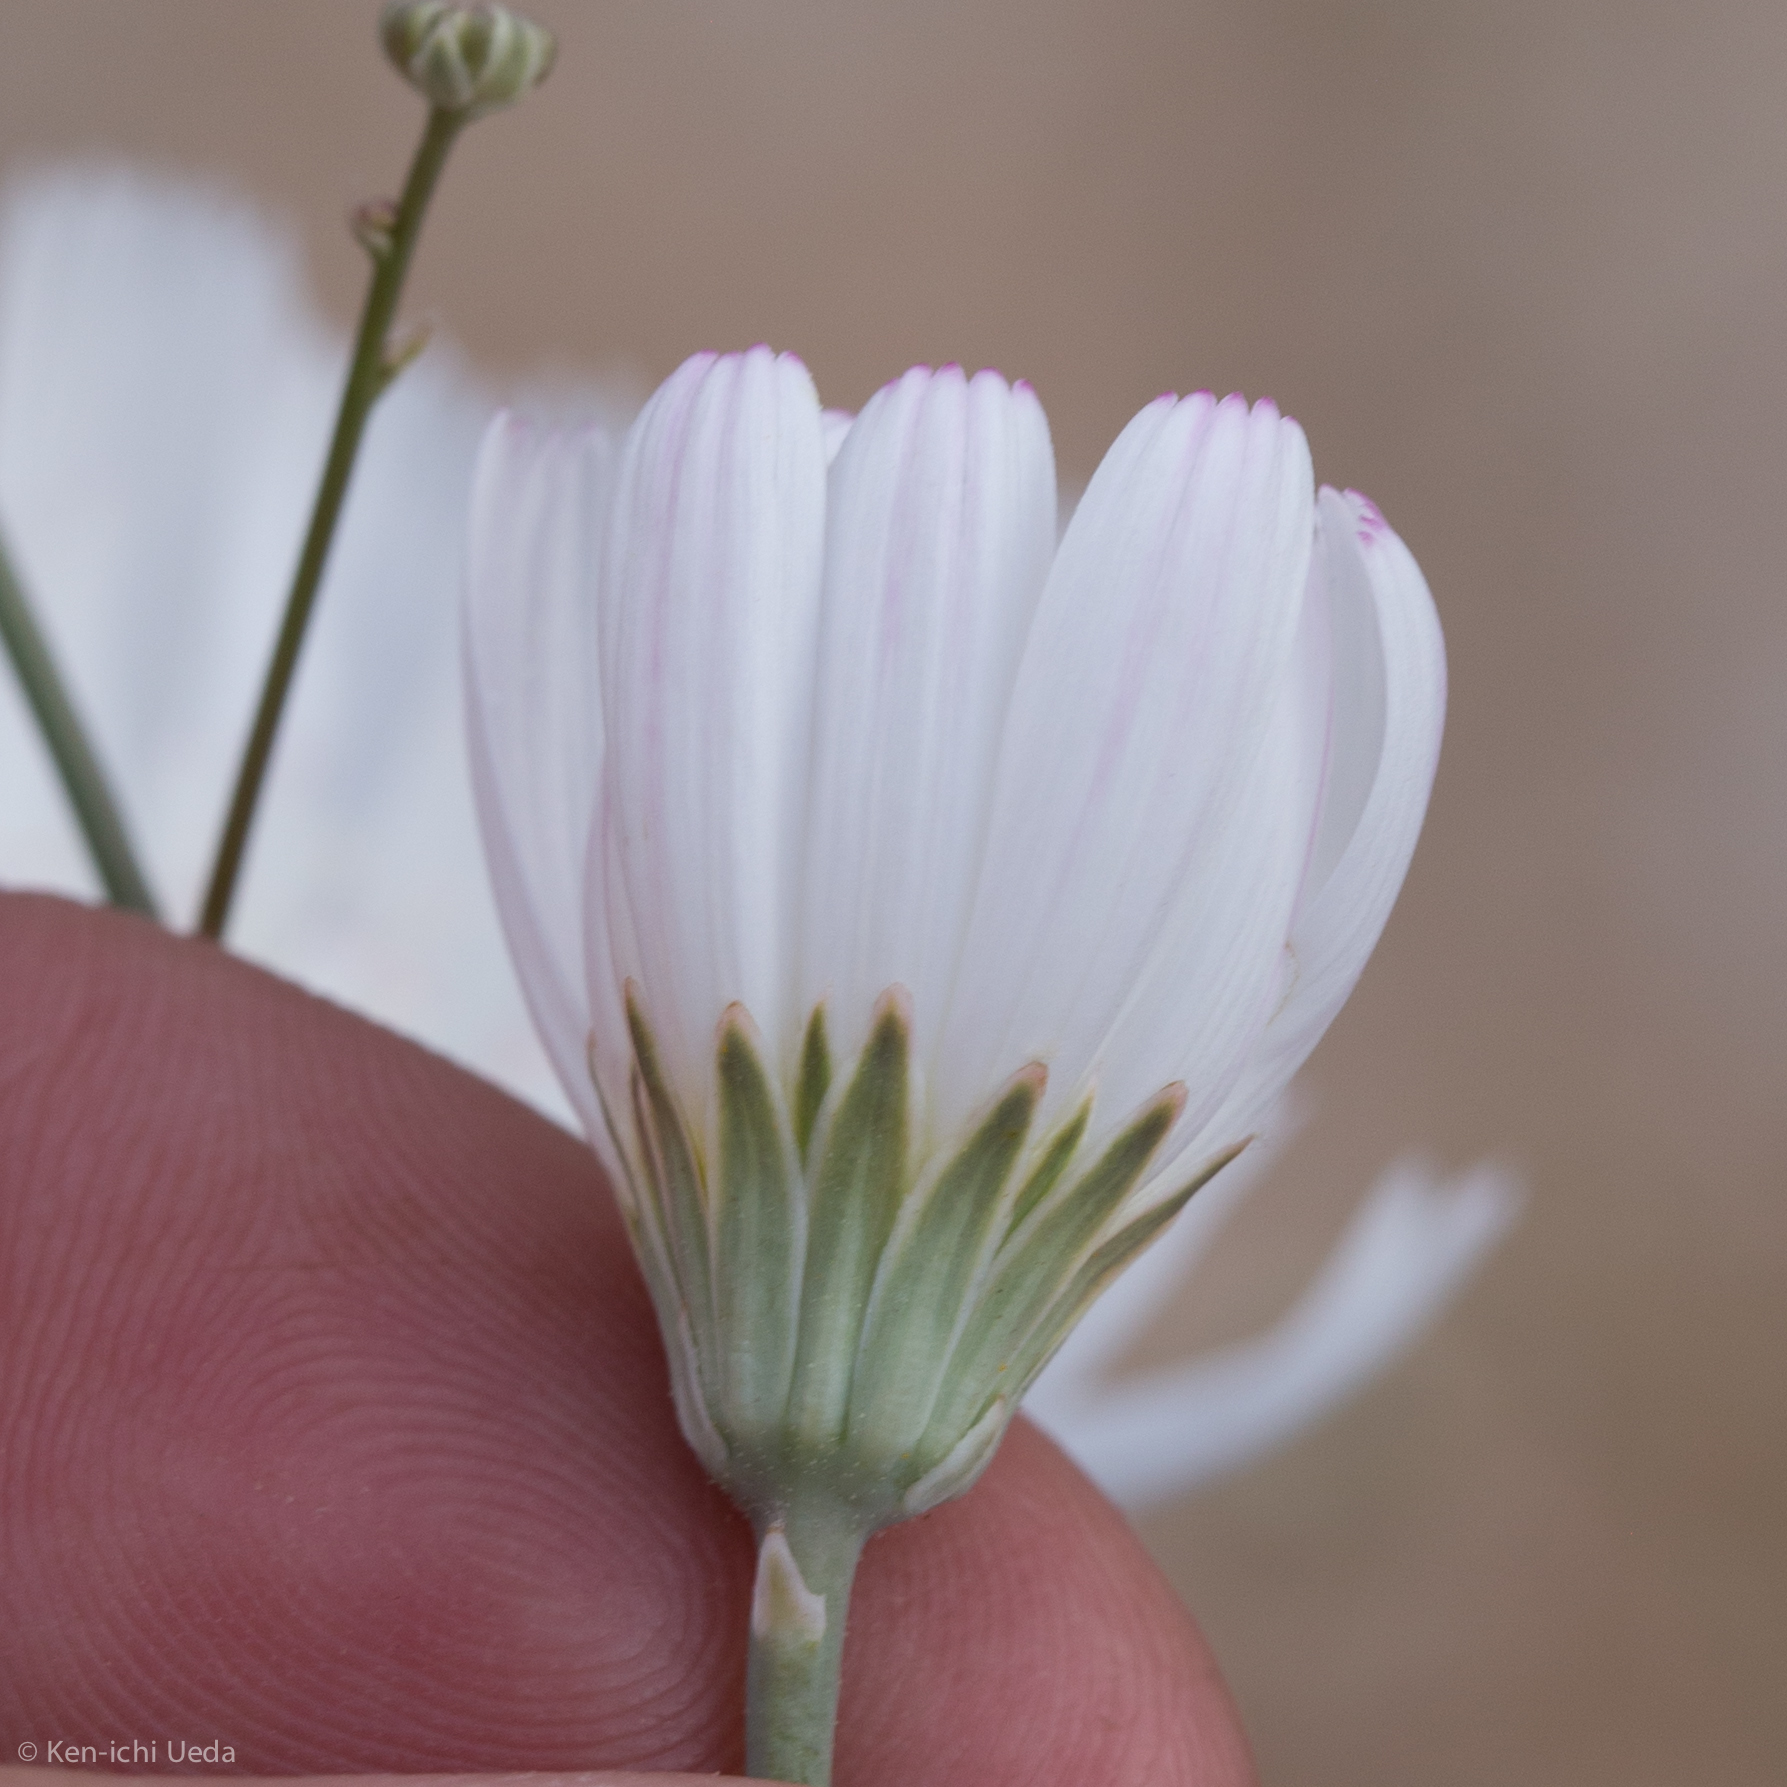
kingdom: Plantae
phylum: Tracheophyta
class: Magnoliopsida
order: Asterales
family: Asteraceae
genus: Atrichoseris
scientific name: Atrichoseris platyphylla
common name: Tobaccoweed
